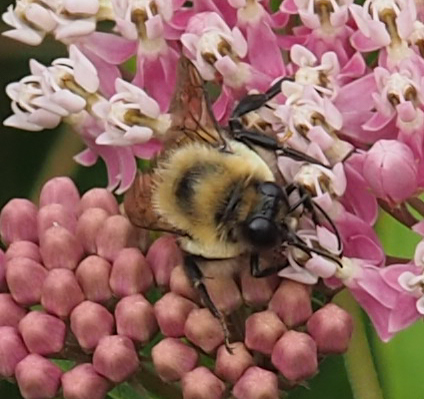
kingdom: Animalia
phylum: Arthropoda
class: Insecta
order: Hymenoptera
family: Apidae
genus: Bombus
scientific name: Bombus griseocollis
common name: Brown-belted bumble bee
